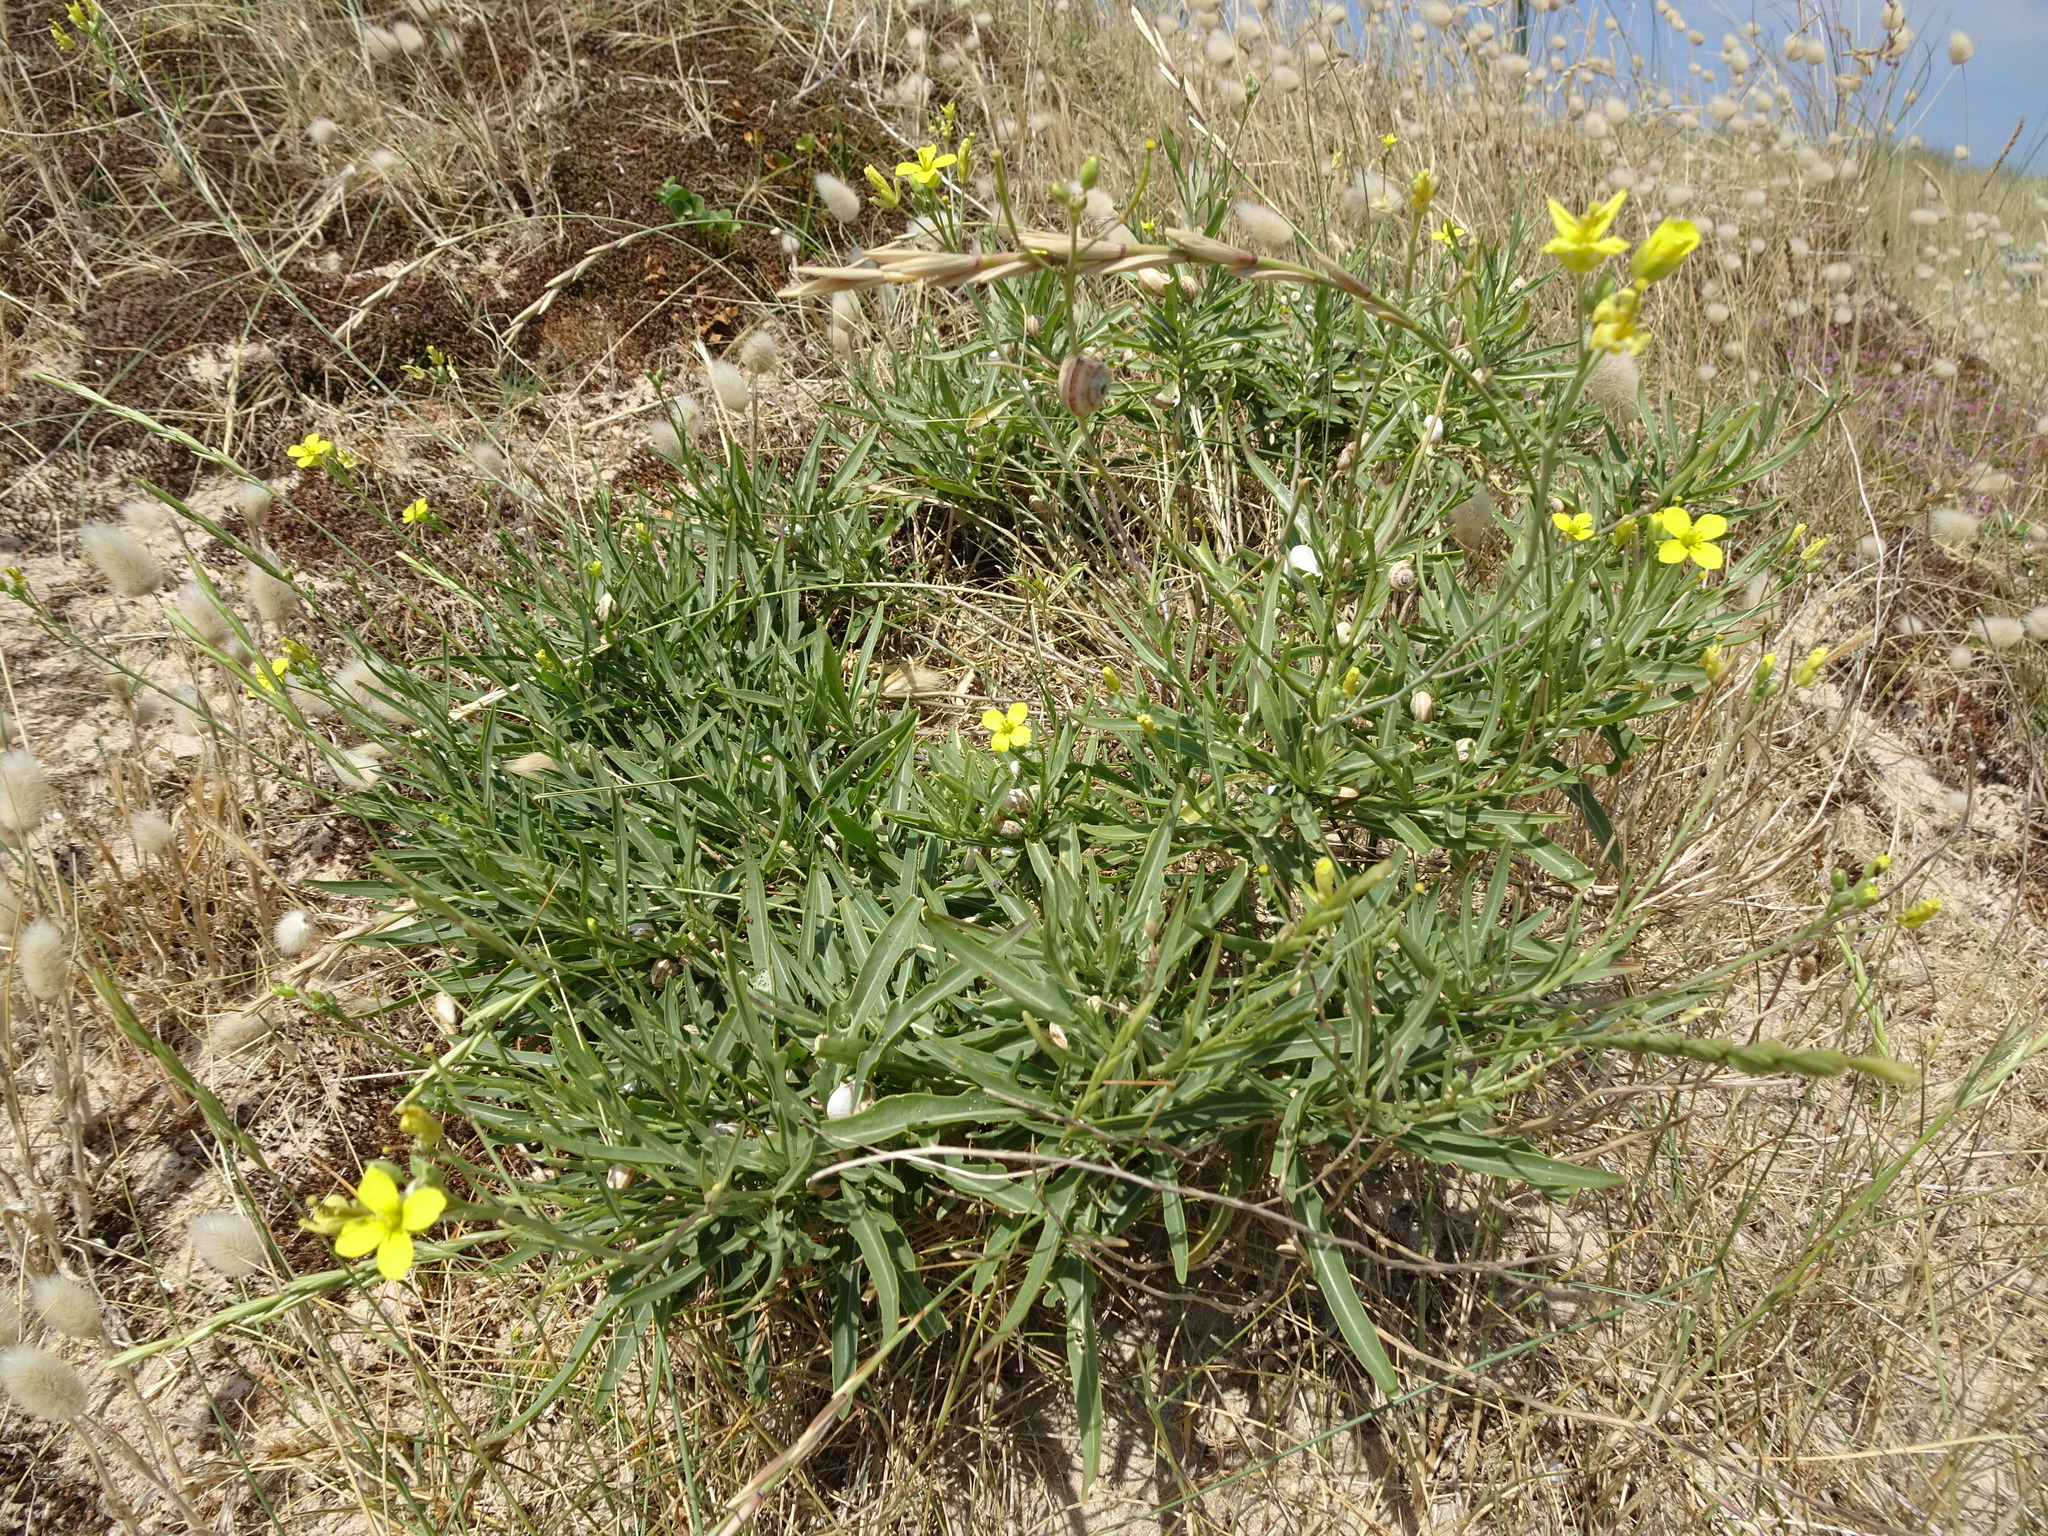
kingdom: Plantae
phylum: Tracheophyta
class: Magnoliopsida
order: Brassicales
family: Brassicaceae
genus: Diplotaxis
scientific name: Diplotaxis tenuifolia
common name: Perennial wall-rocket
